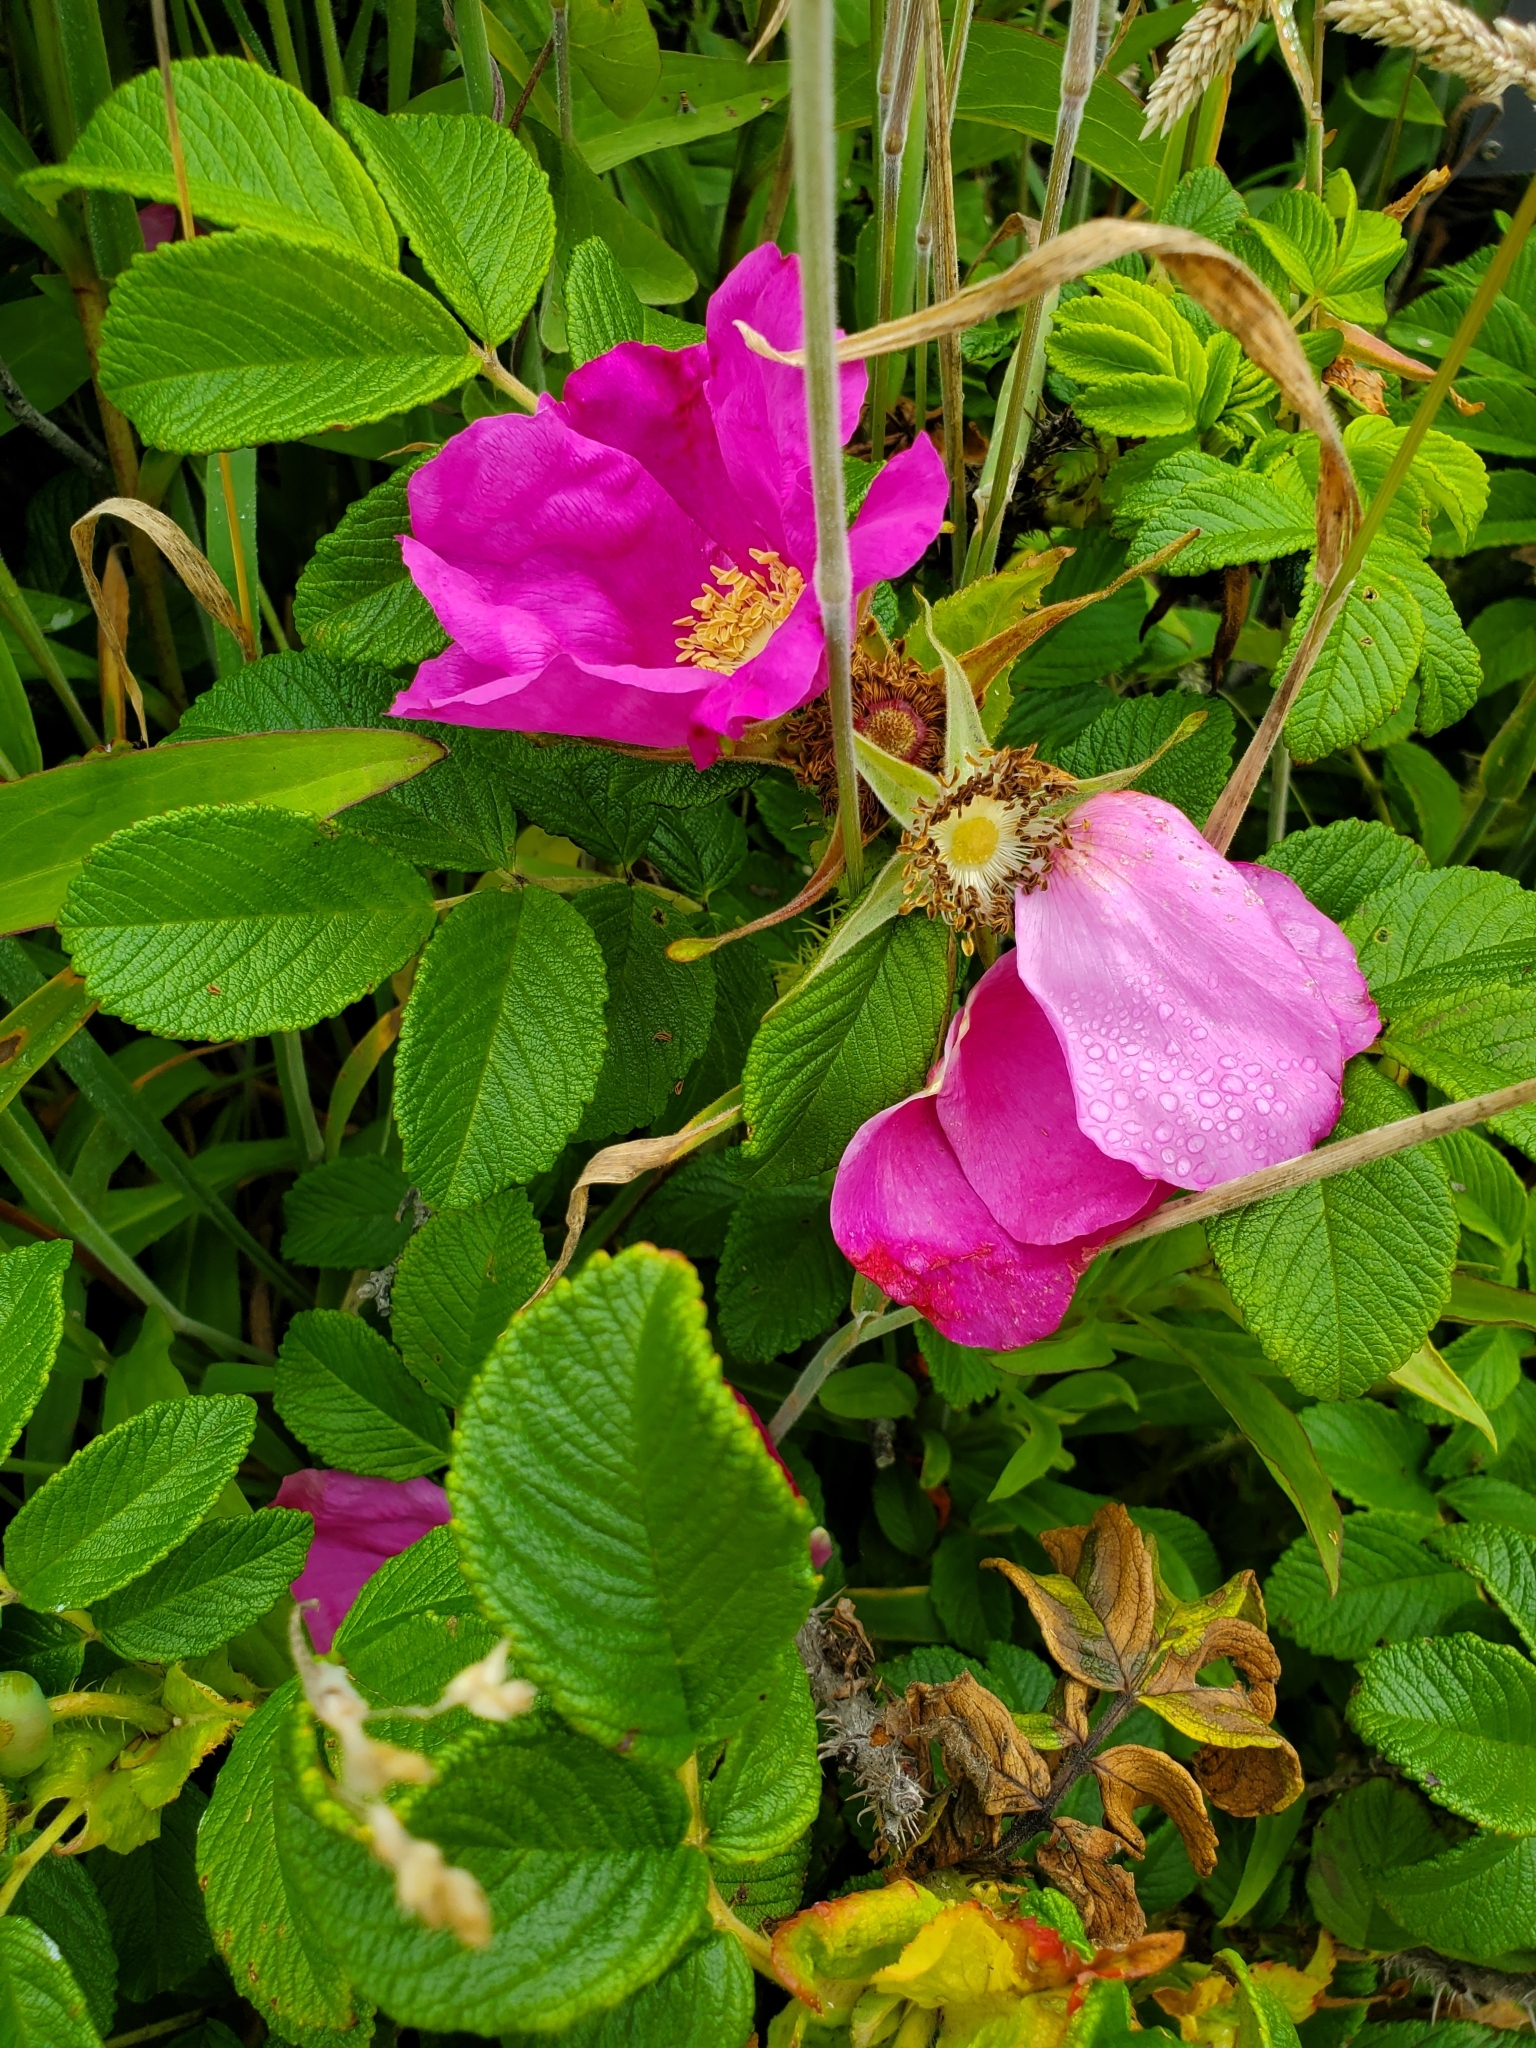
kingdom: Plantae
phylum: Tracheophyta
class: Magnoliopsida
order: Rosales
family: Rosaceae
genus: Rosa
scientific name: Rosa rugosa
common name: Japanese rose
